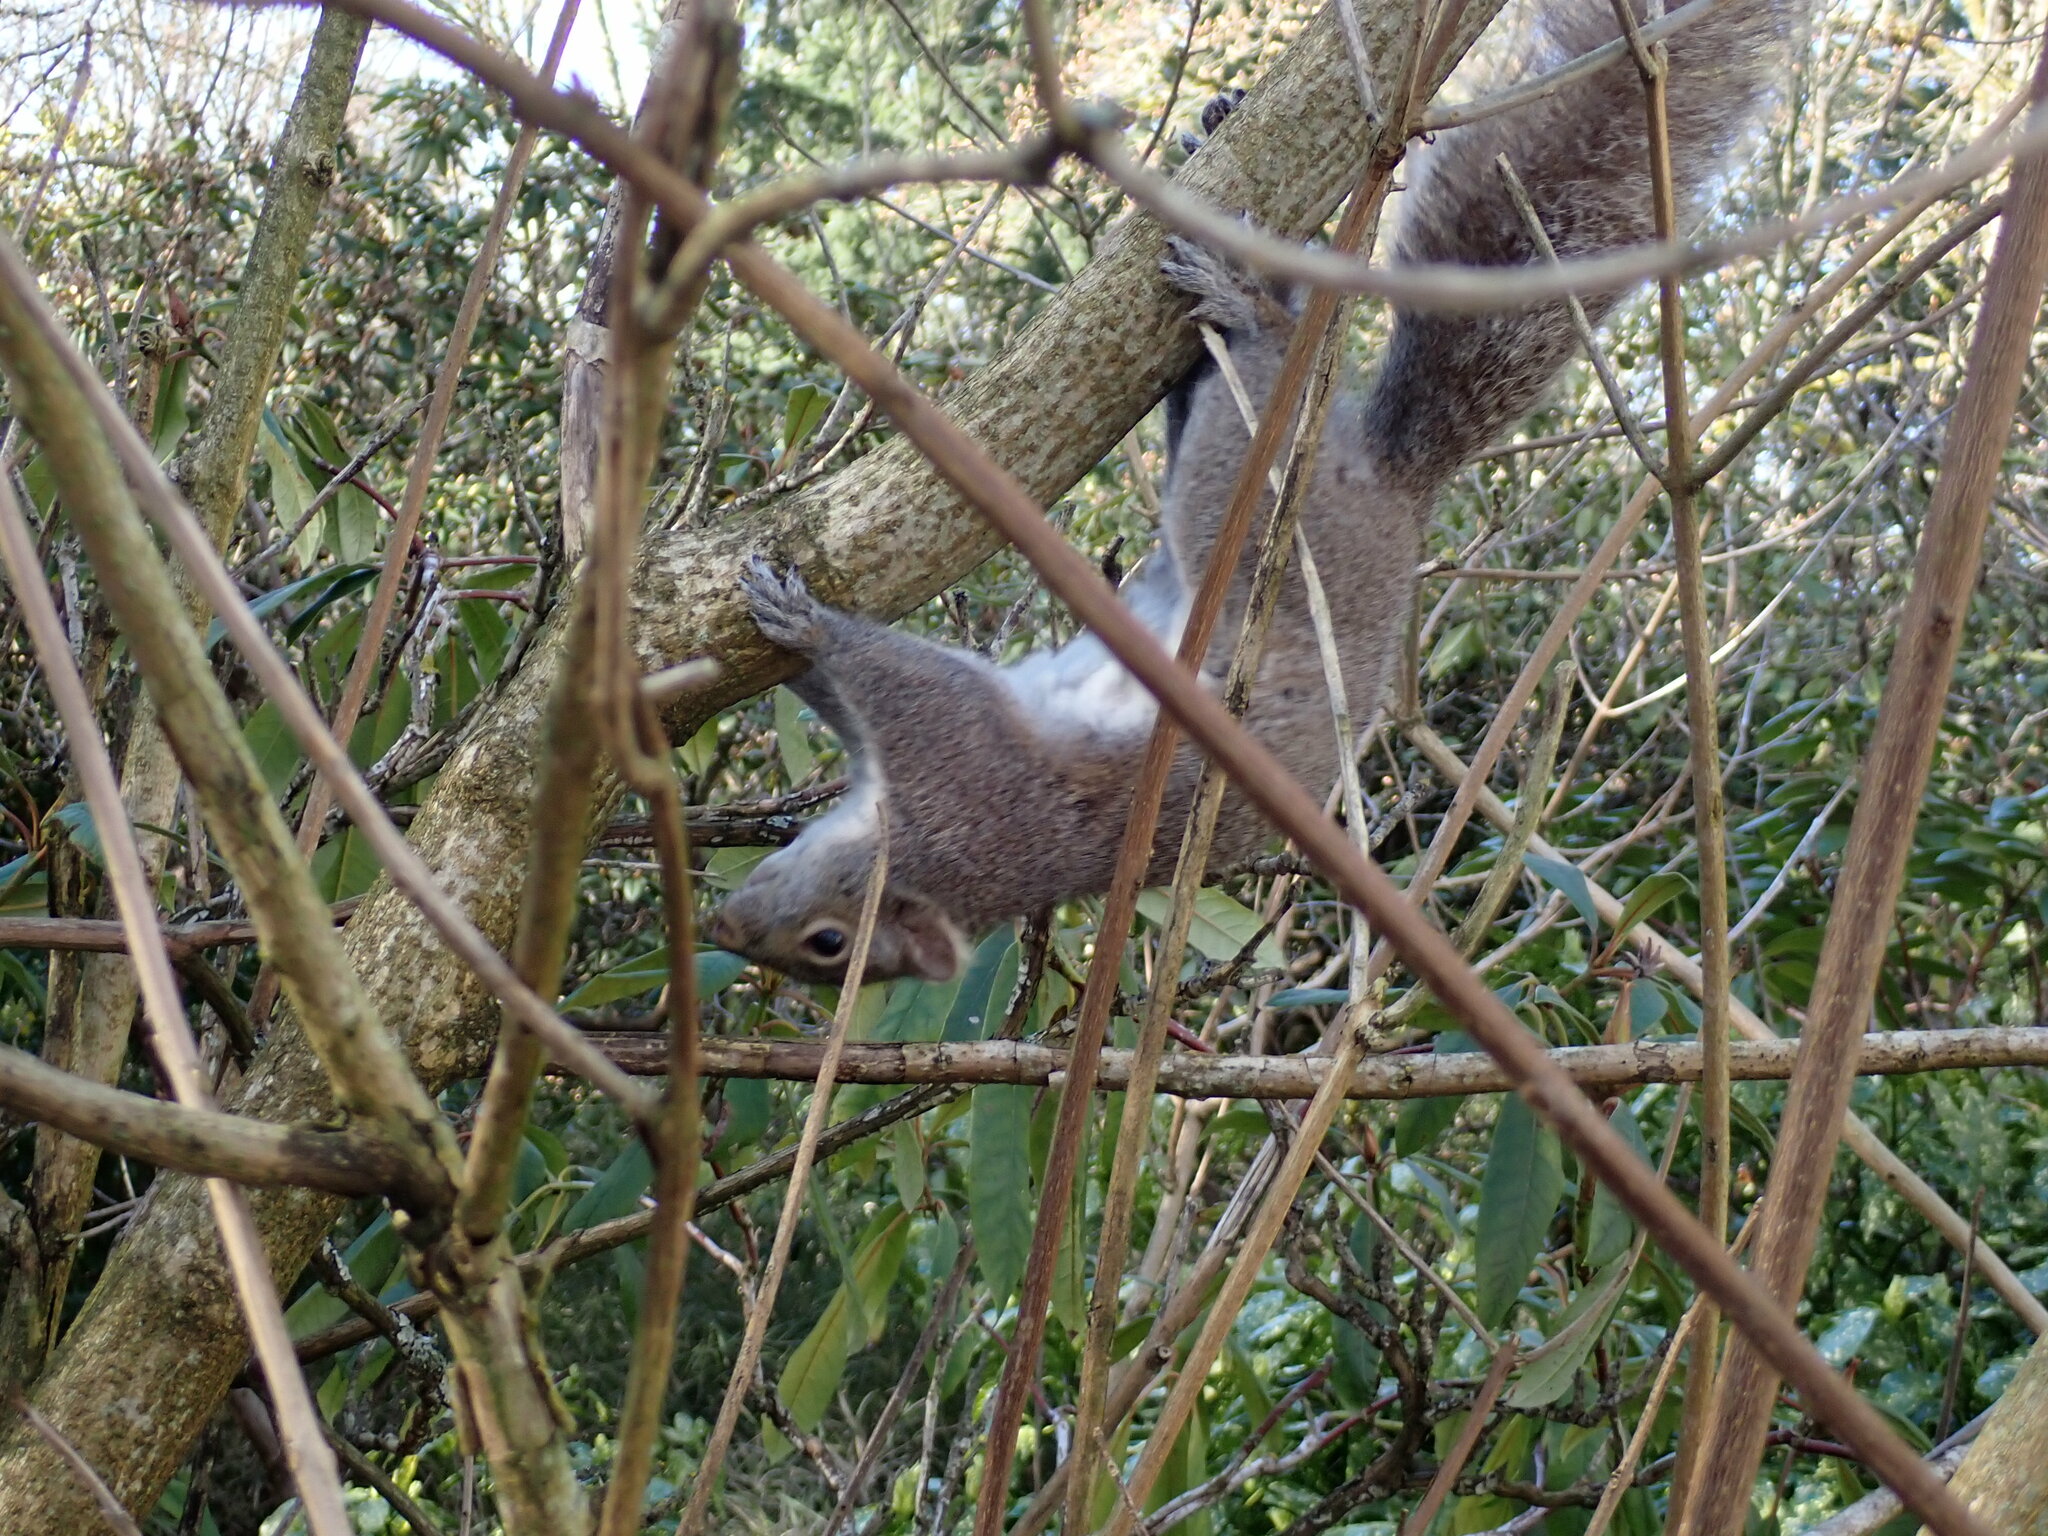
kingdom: Animalia
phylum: Chordata
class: Mammalia
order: Rodentia
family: Sciuridae
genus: Sciurus
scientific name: Sciurus carolinensis
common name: Eastern gray squirrel
